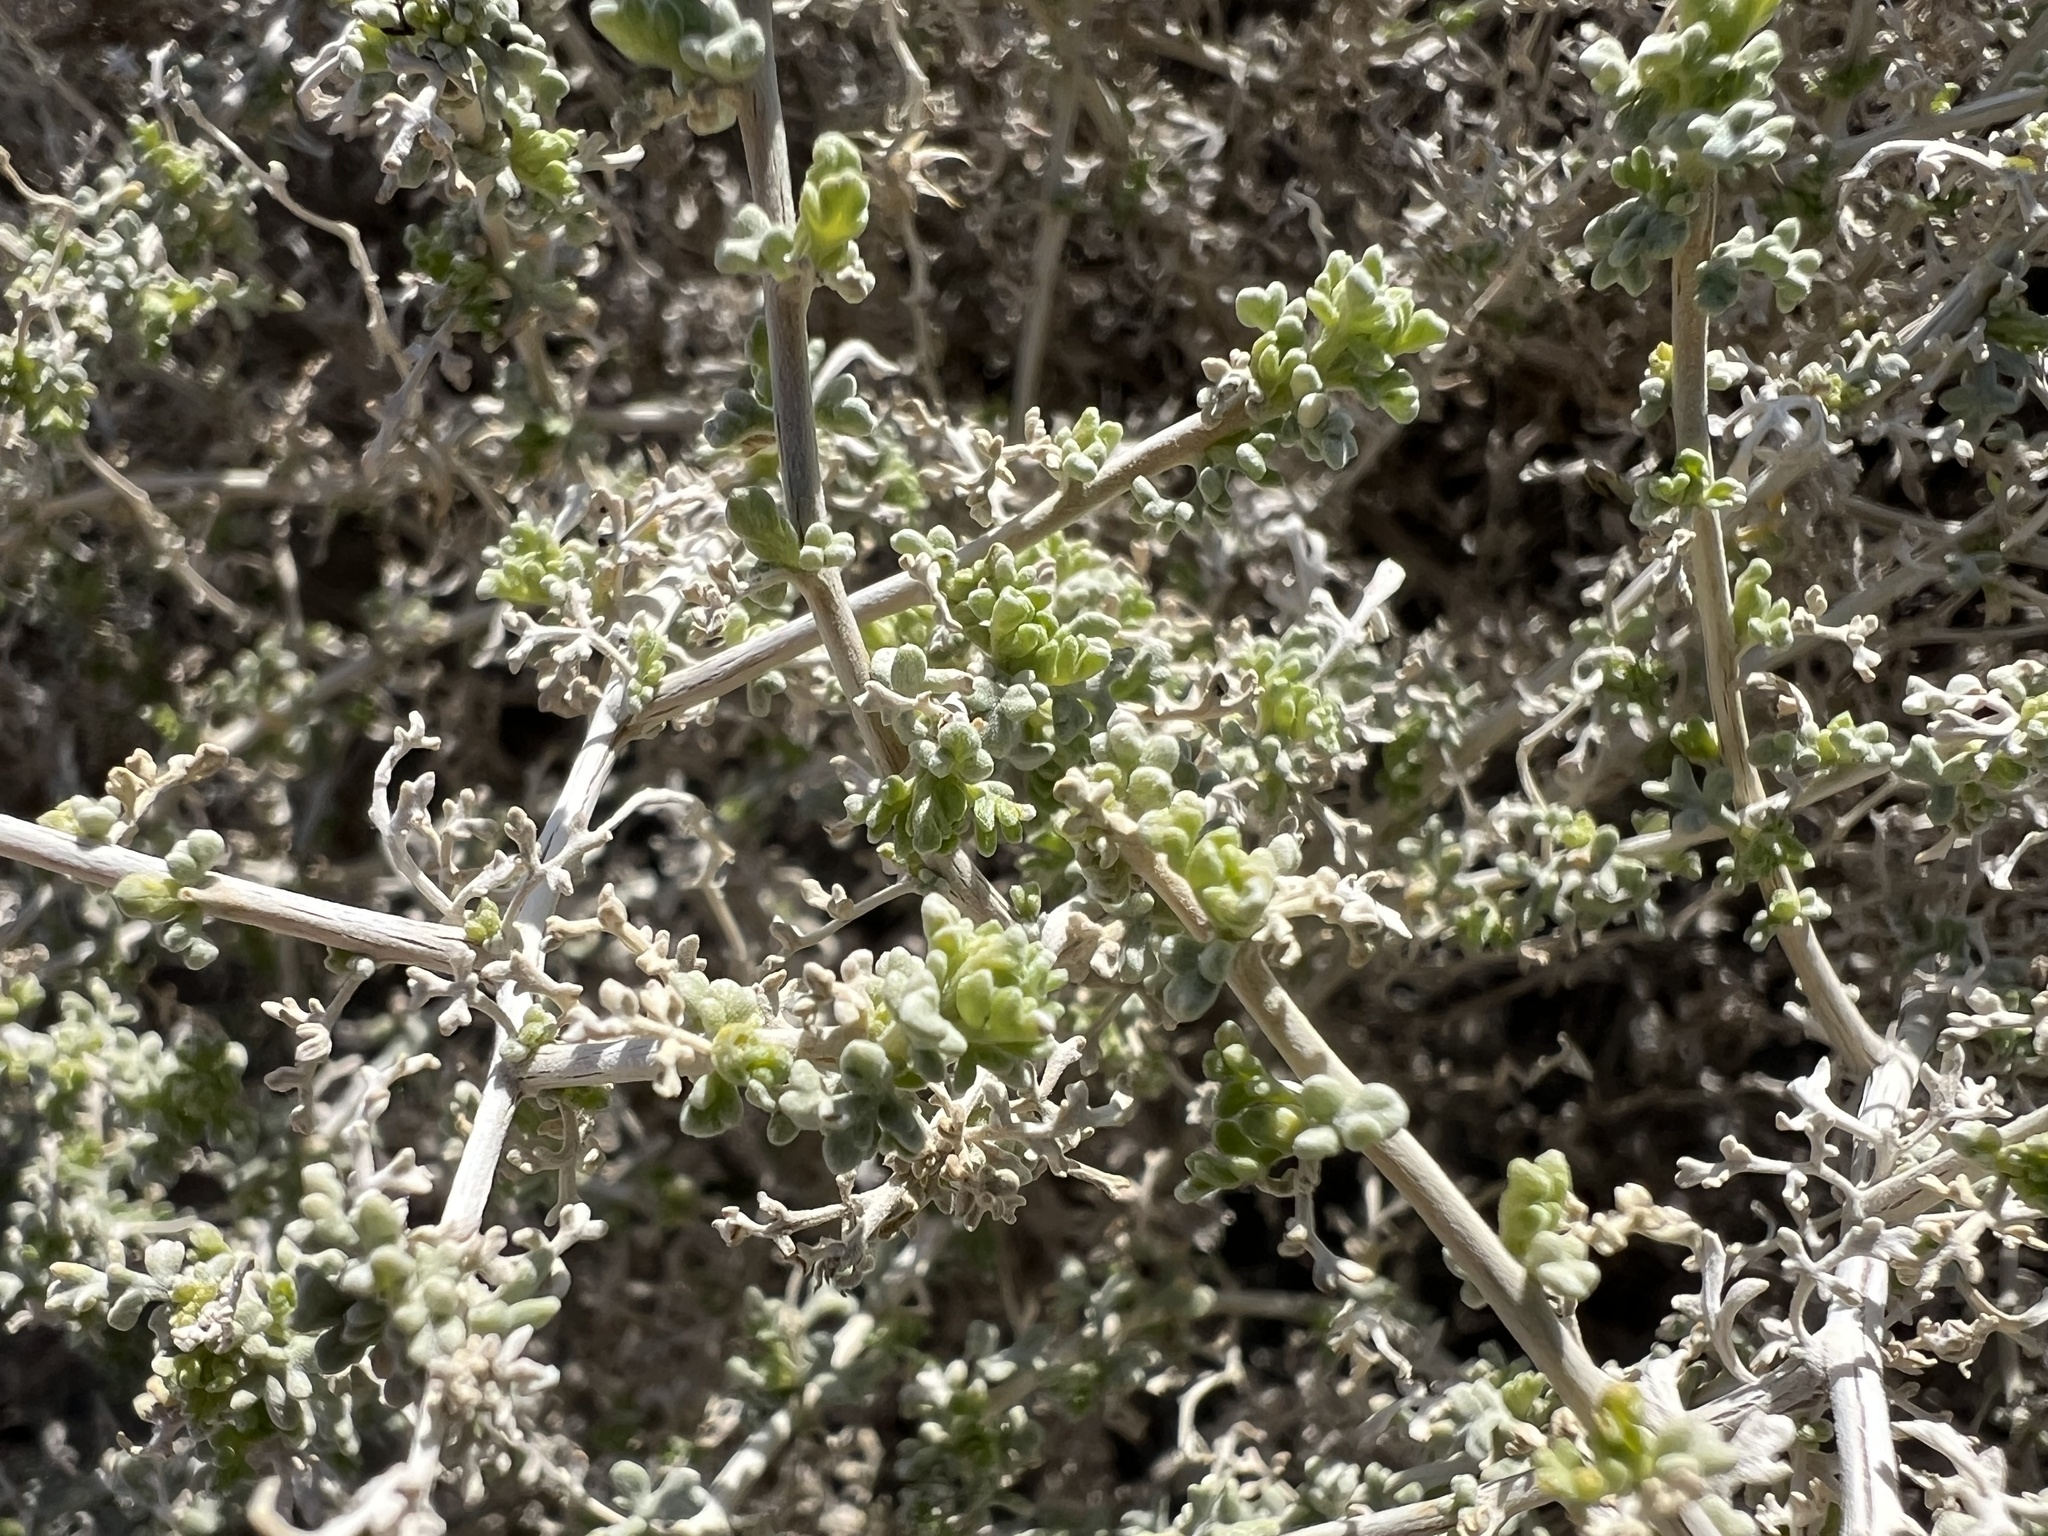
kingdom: Plantae
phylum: Tracheophyta
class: Magnoliopsida
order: Asterales
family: Asteraceae
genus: Ambrosia
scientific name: Ambrosia dumosa
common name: Bur-sage
